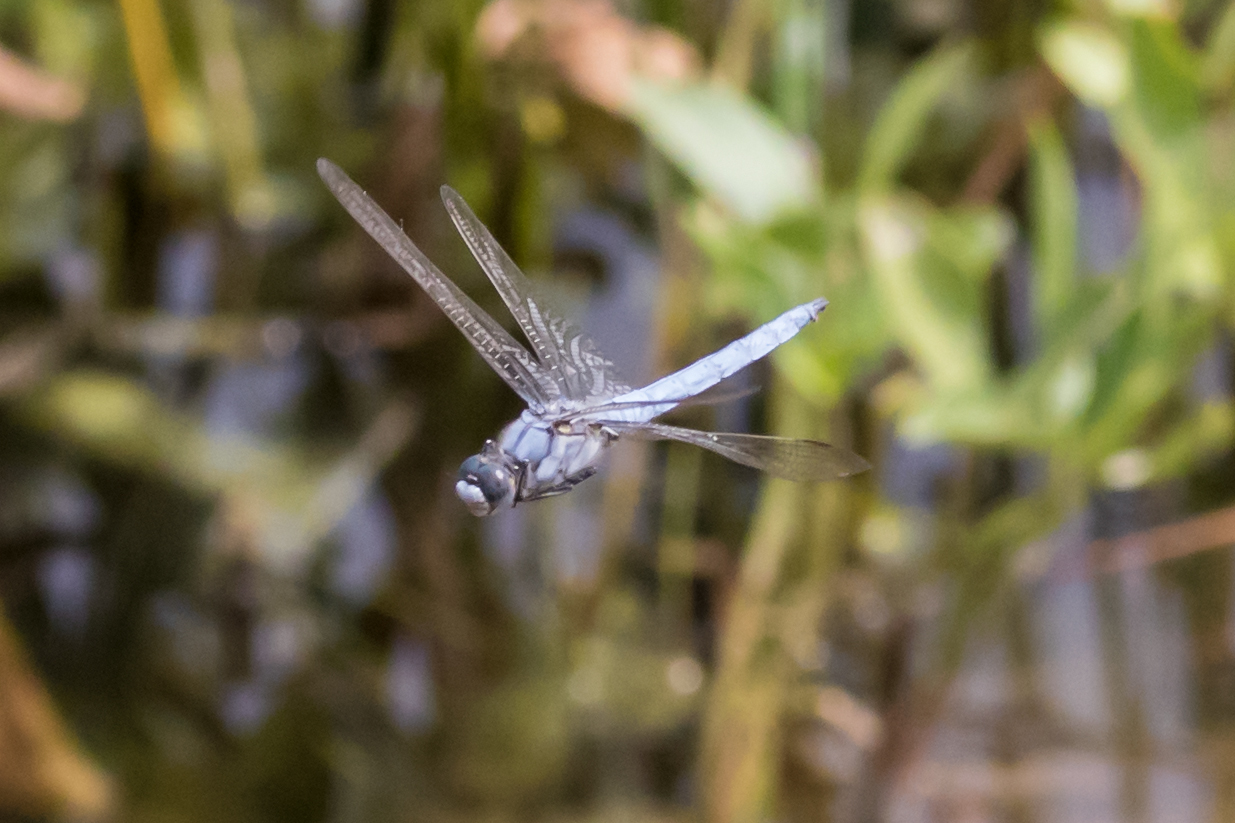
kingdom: Animalia
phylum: Arthropoda
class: Insecta
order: Odonata
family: Libellulidae
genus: Orthetrum
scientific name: Orthetrum brunneum
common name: Southern skimmer
